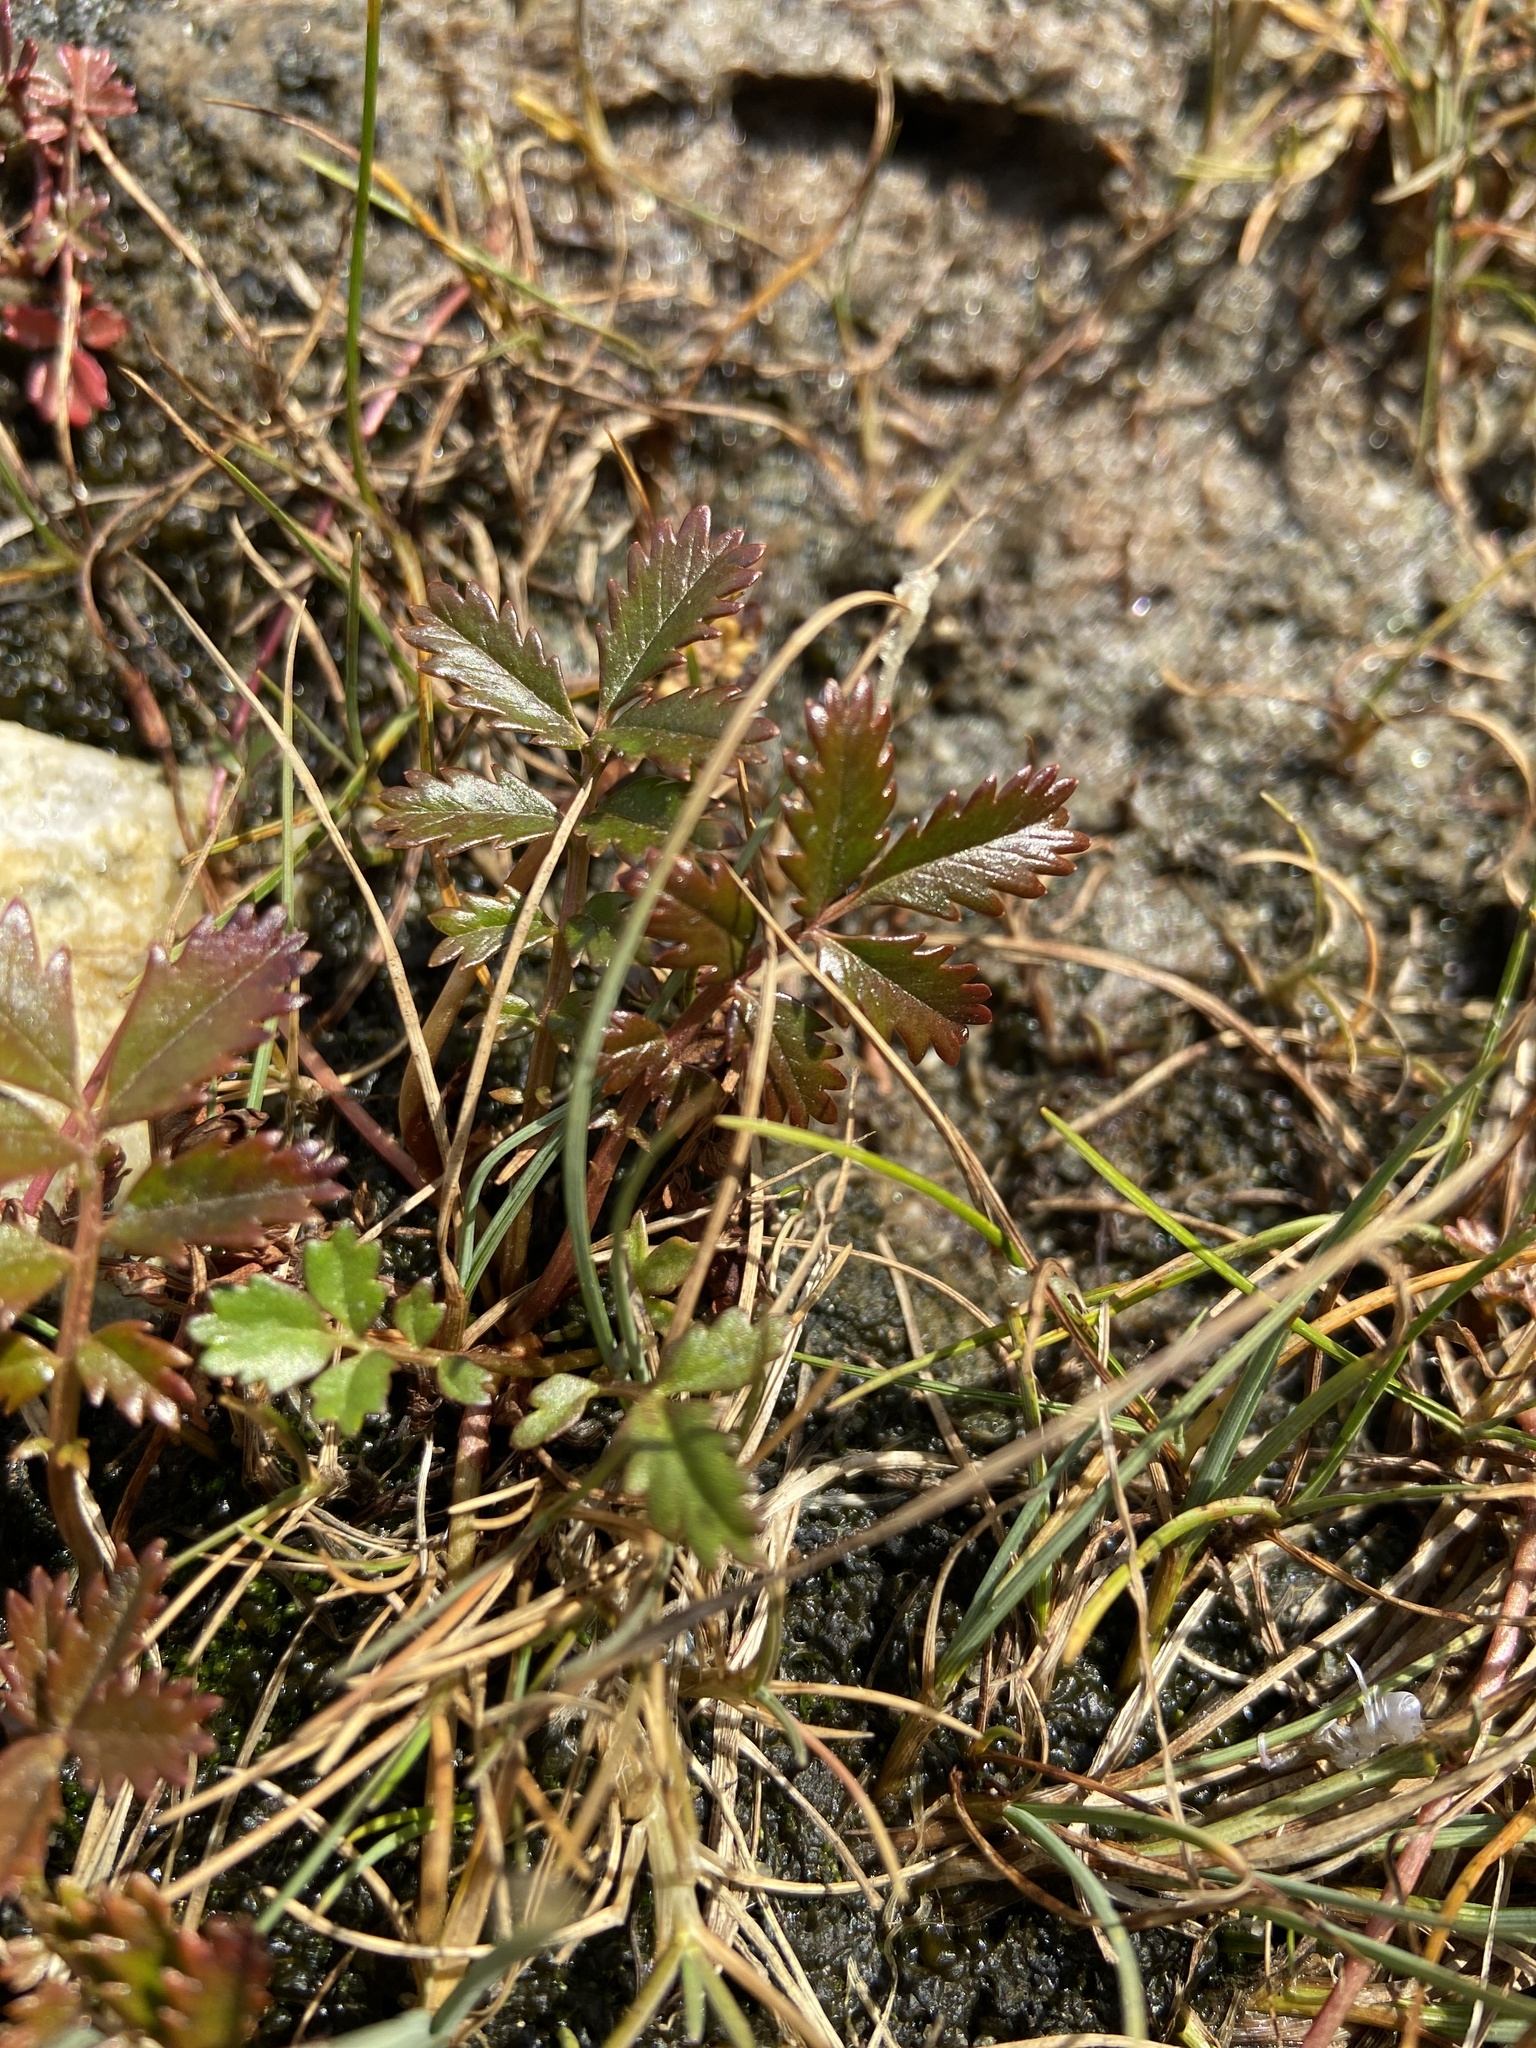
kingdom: Plantae
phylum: Tracheophyta
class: Magnoliopsida
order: Rosales
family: Rosaceae
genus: Argentina
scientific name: Argentina subarctica
